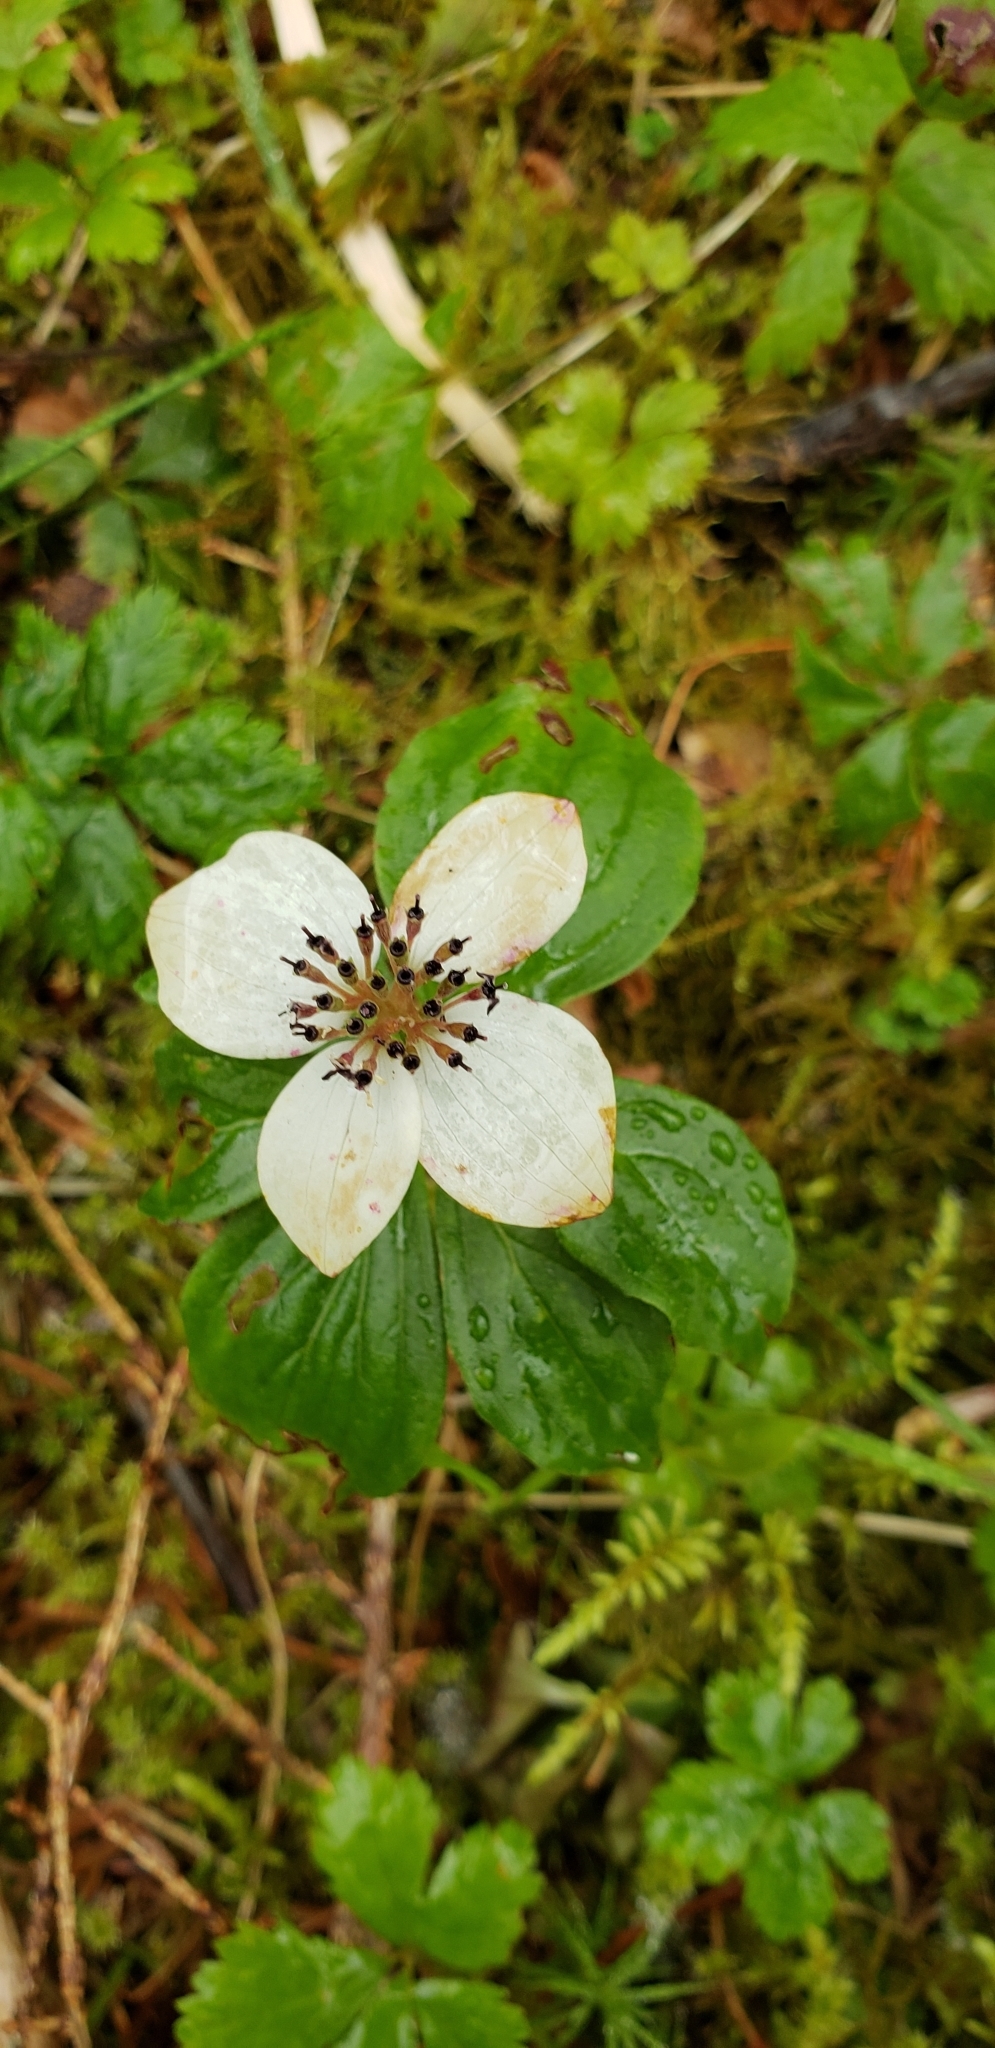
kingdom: Plantae
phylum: Tracheophyta
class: Magnoliopsida
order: Cornales
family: Cornaceae
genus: Cornus
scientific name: Cornus unalaschkensis
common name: Alaska bunchberry
